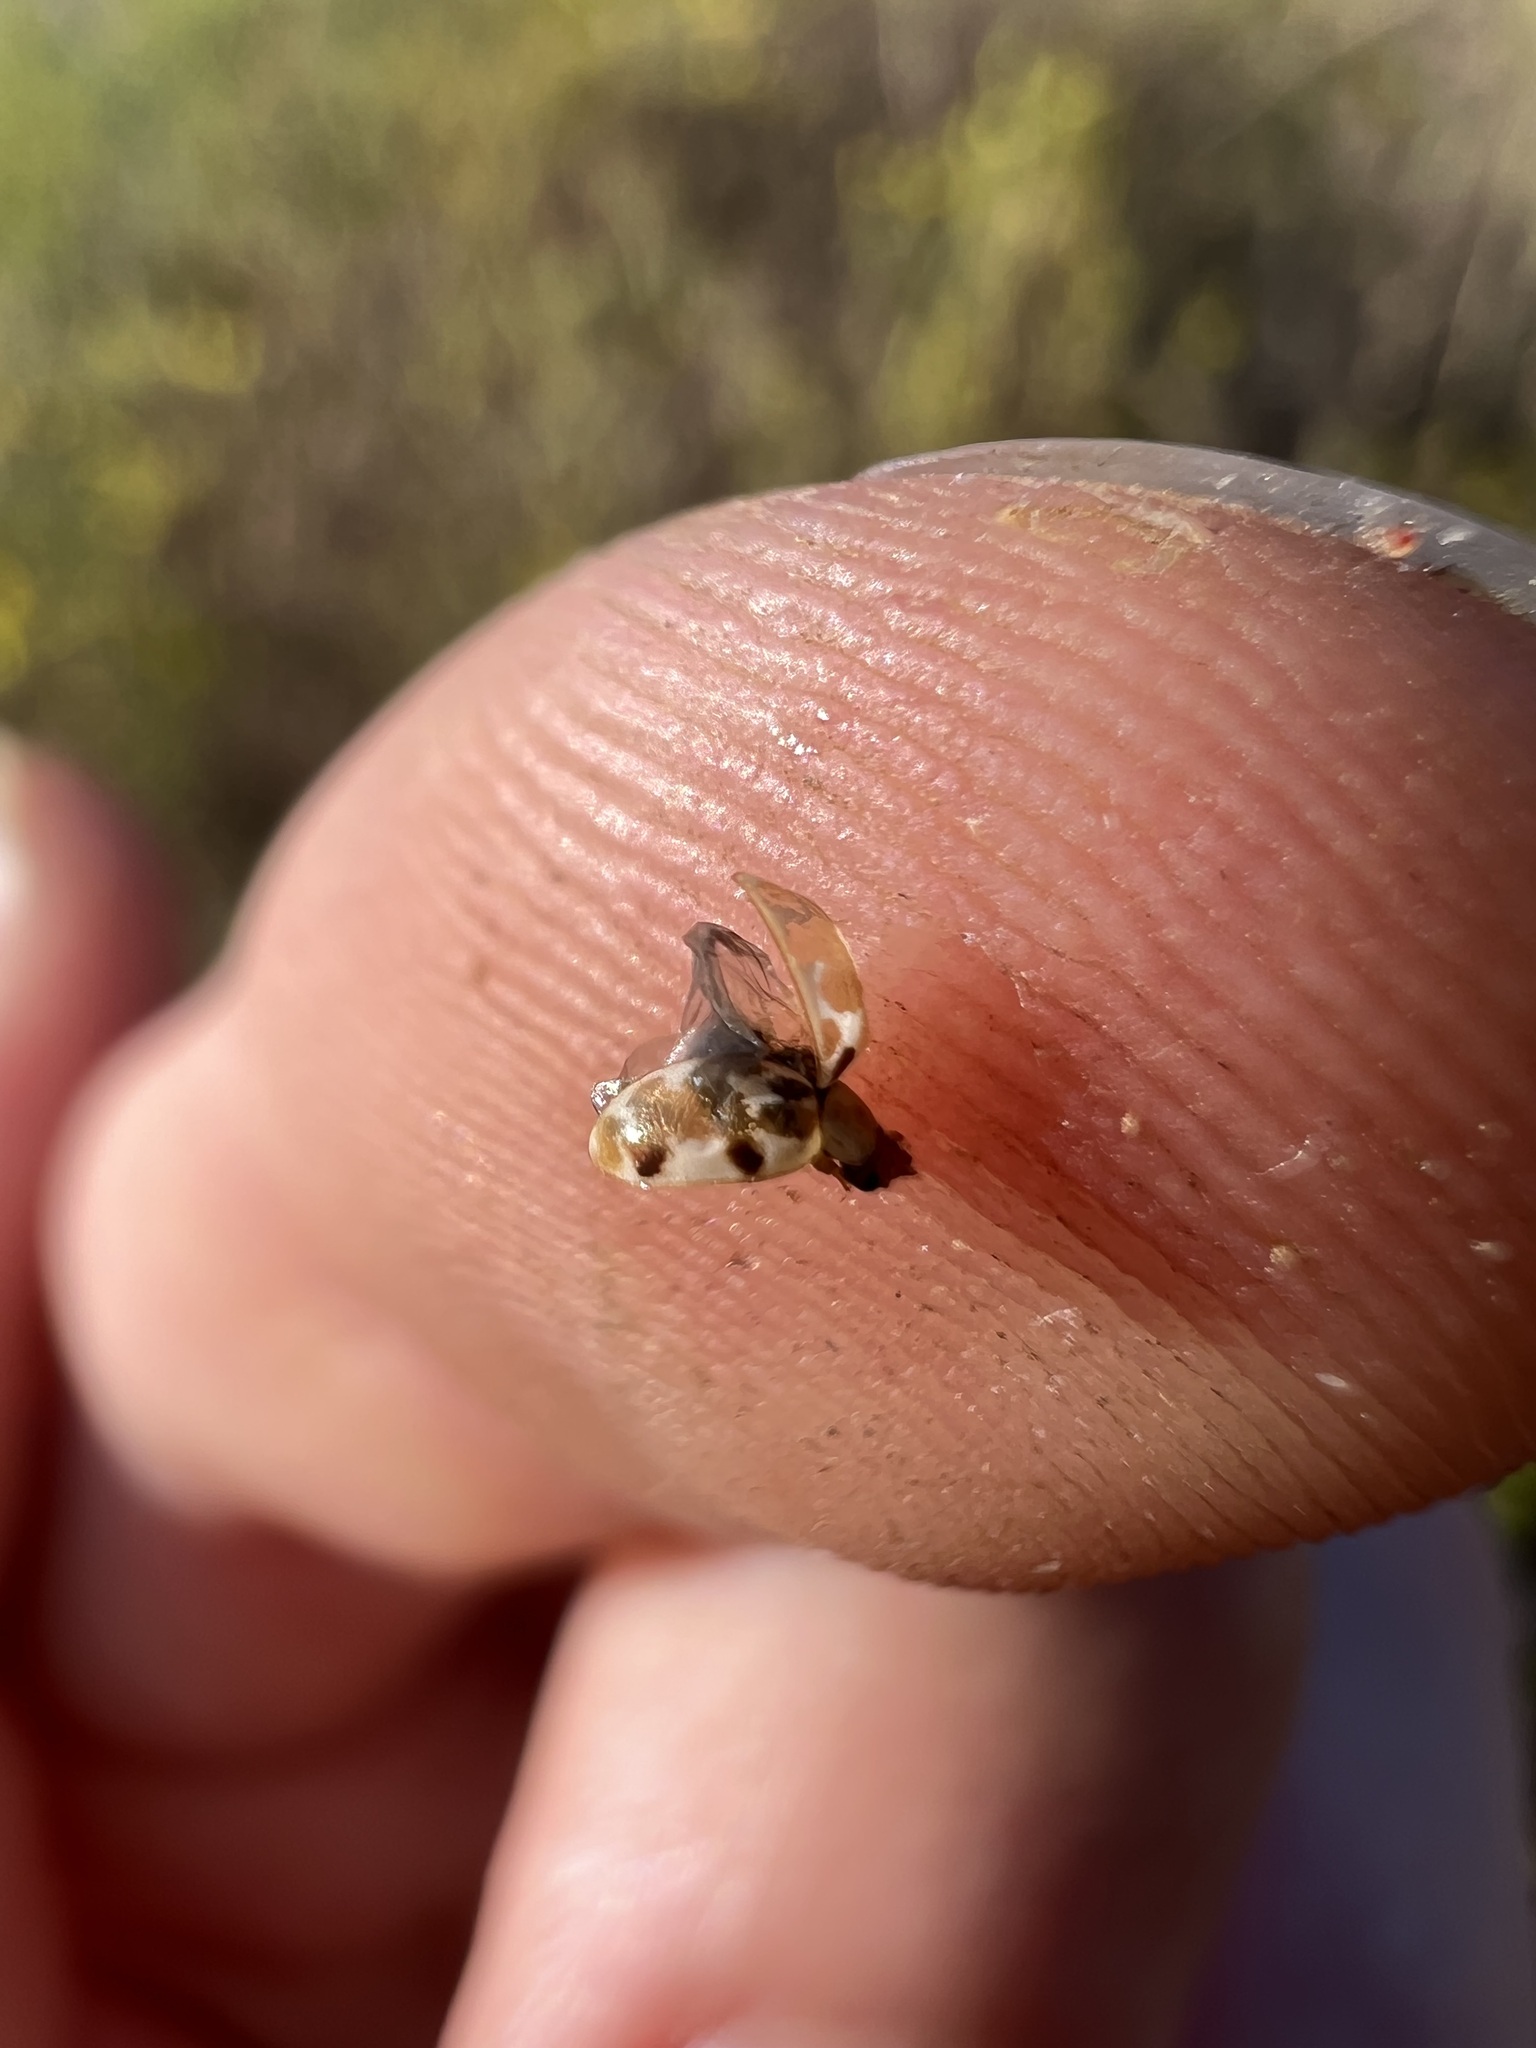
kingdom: Animalia
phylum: Arthropoda
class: Insecta
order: Coleoptera
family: Coccinellidae
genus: Psyllobora
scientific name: Psyllobora vigintimaculata
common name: Ladybird beetle
